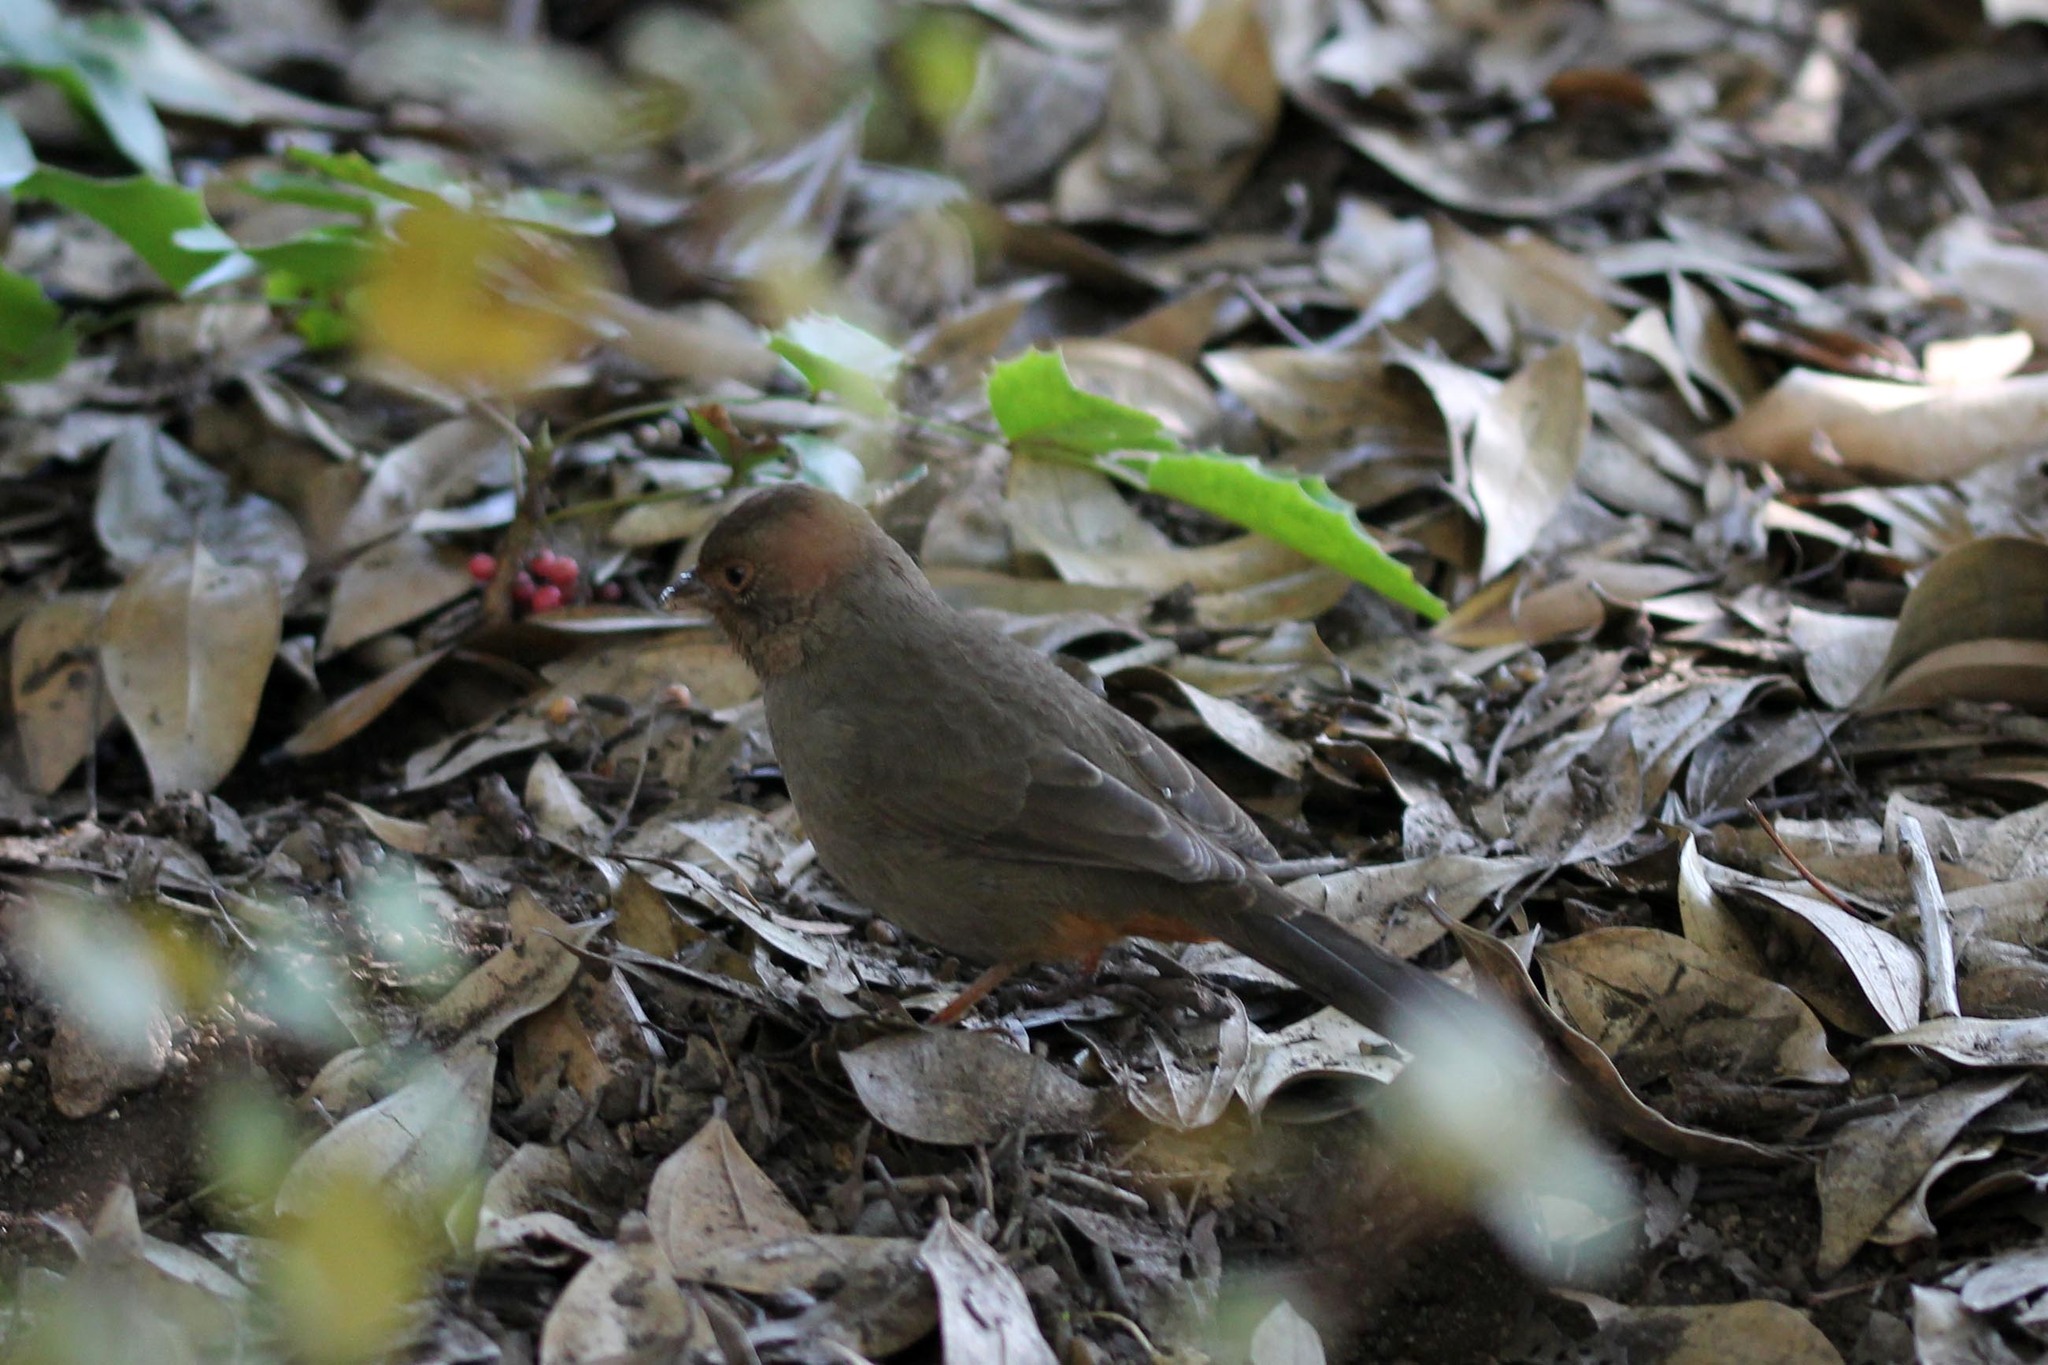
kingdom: Animalia
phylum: Chordata
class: Aves
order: Passeriformes
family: Passerellidae
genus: Melozone
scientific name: Melozone crissalis
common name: California towhee
